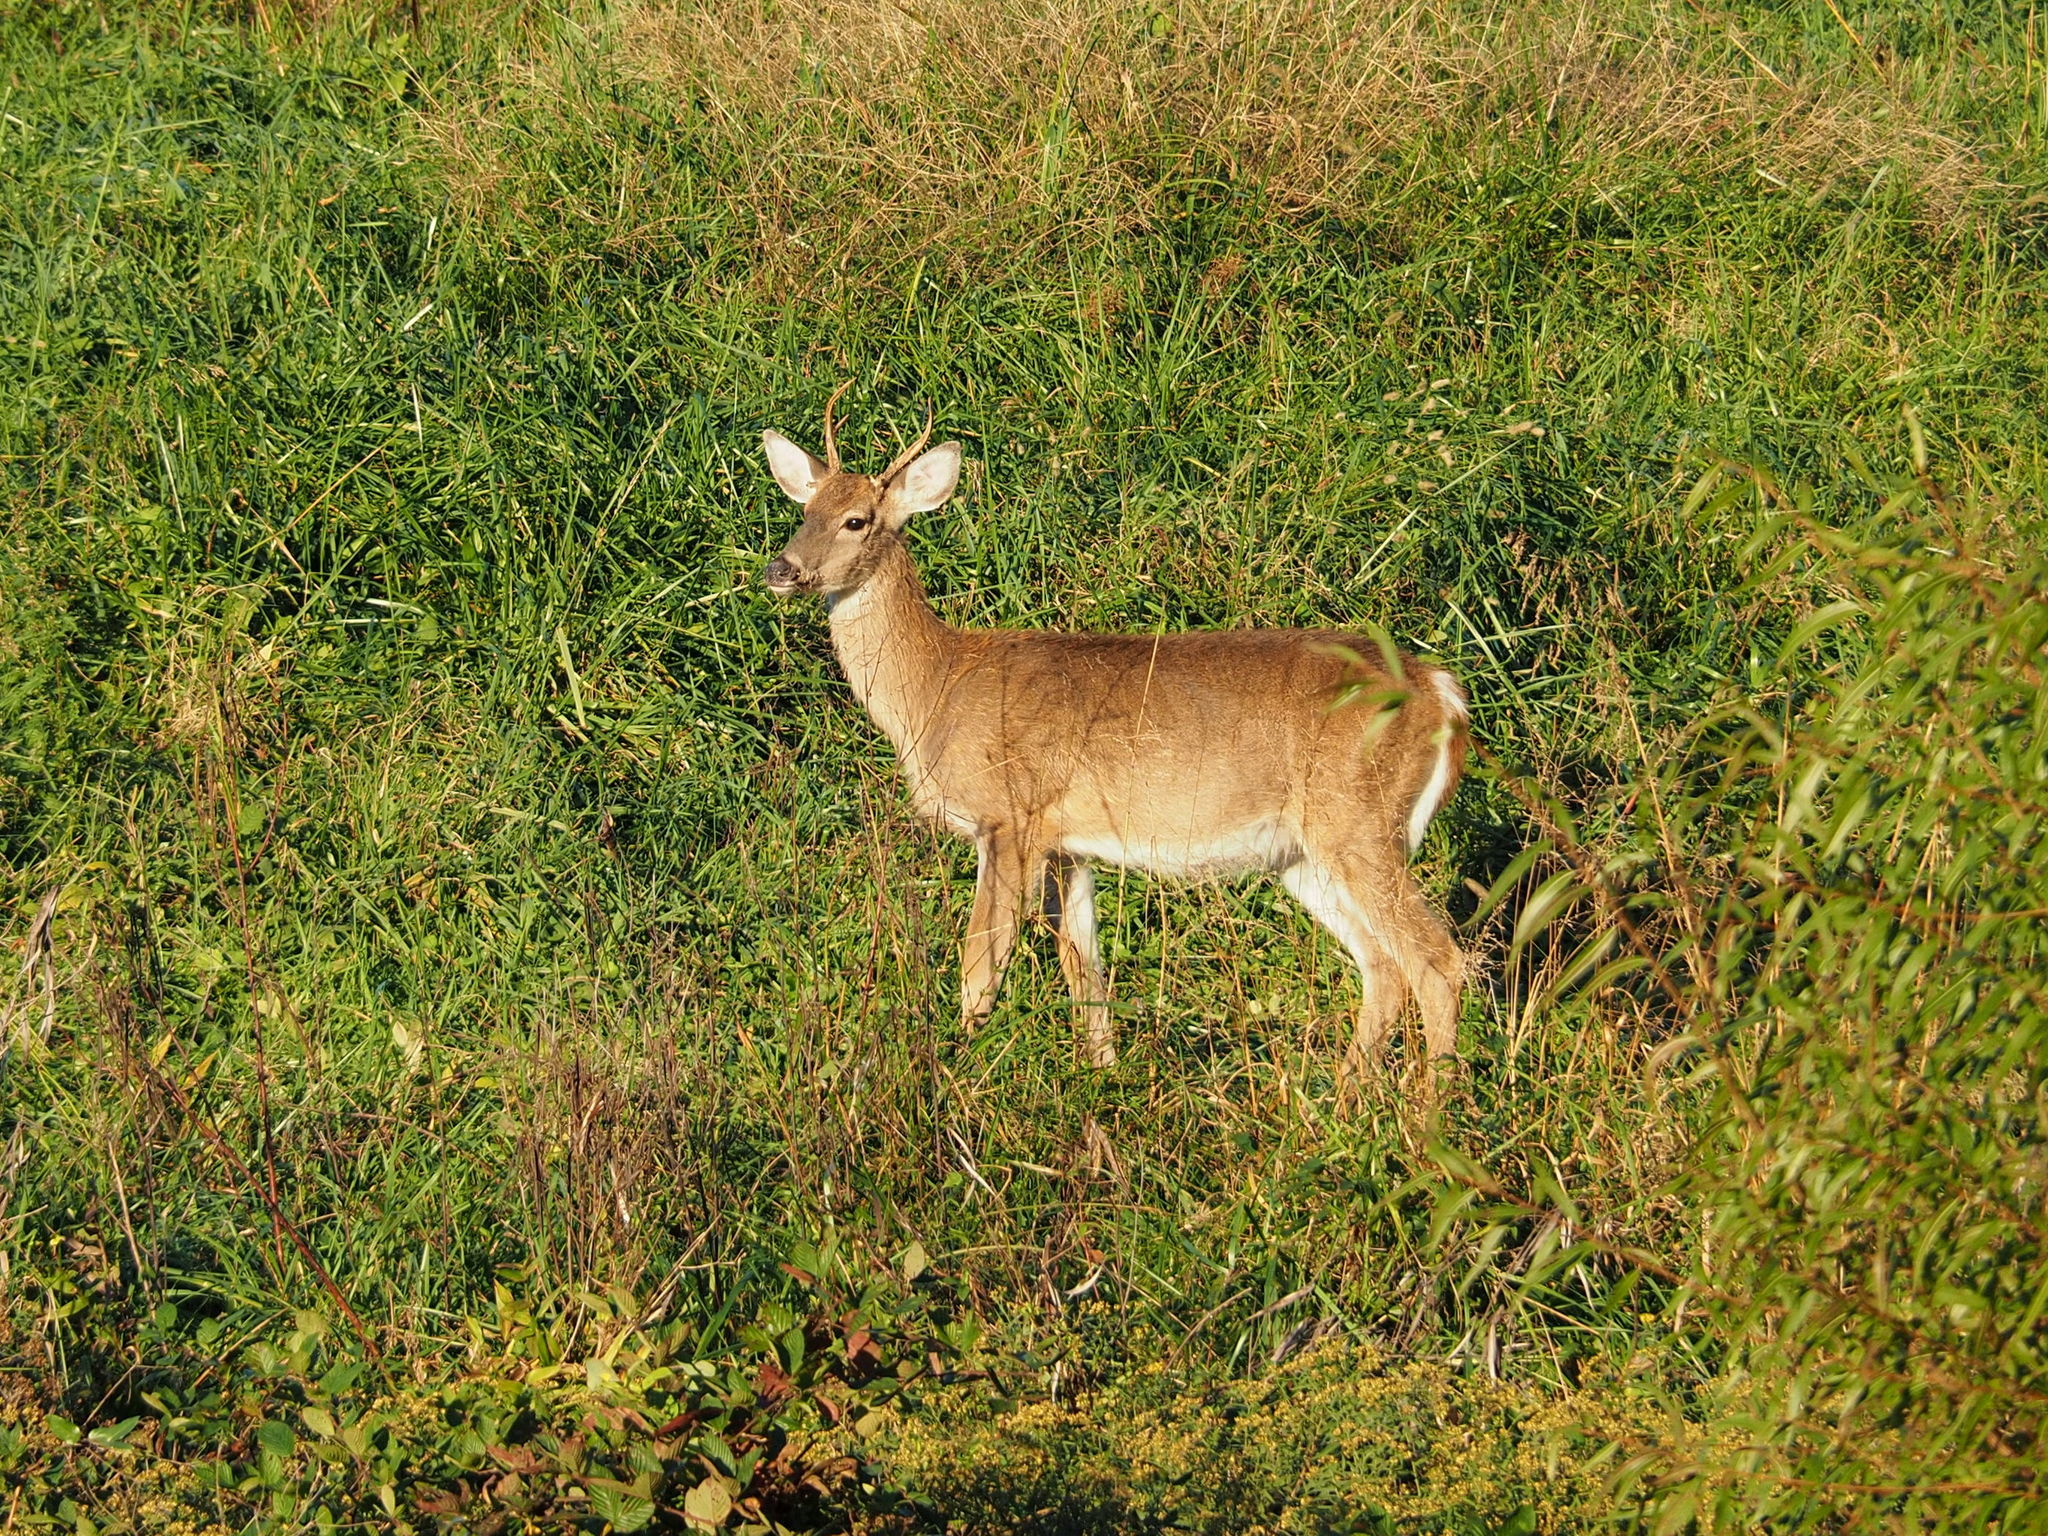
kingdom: Animalia
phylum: Chordata
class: Mammalia
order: Artiodactyla
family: Cervidae
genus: Odocoileus
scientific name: Odocoileus virginianus
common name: White-tailed deer
